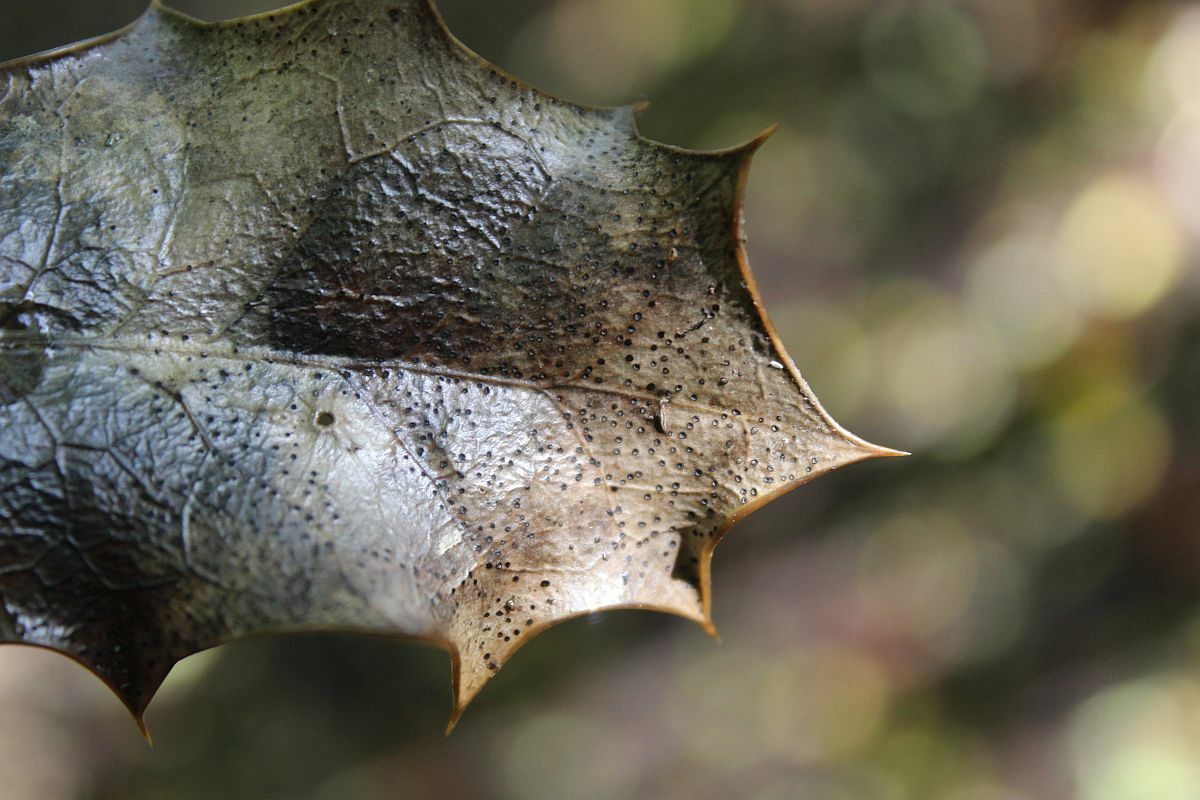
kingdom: Fungi
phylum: Ascomycota
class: Leotiomycetes
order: Helotiales
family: Cenangiaceae
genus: Trochila
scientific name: Trochila ilicina
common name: Holly speckle
